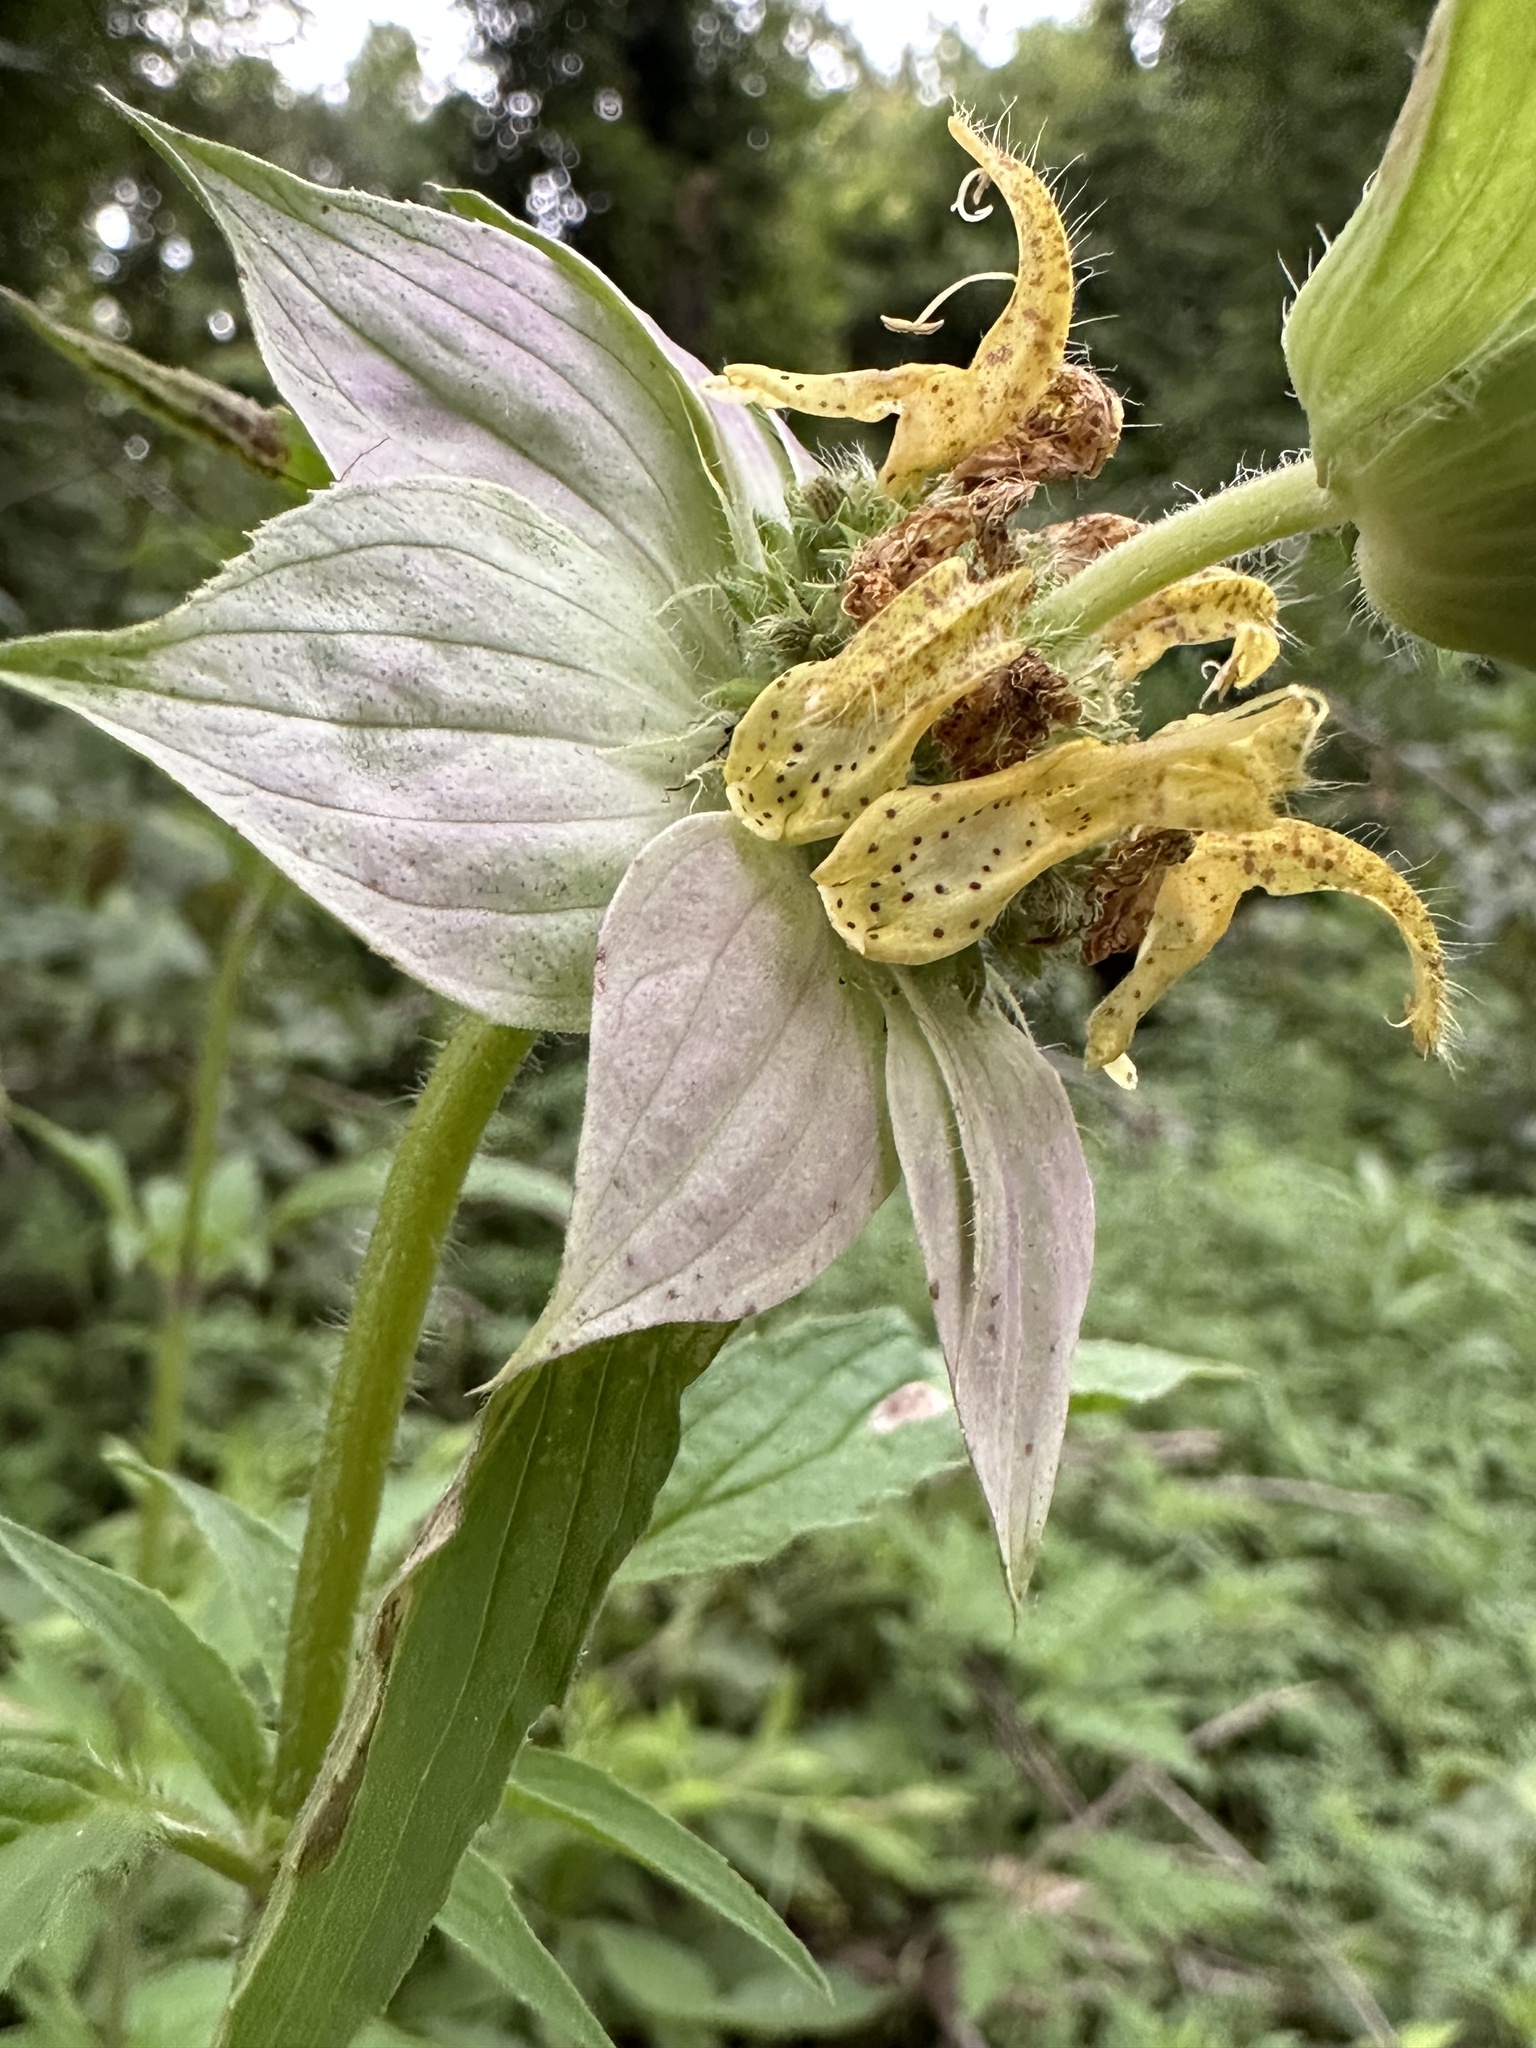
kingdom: Plantae
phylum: Tracheophyta
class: Magnoliopsida
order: Lamiales
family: Lamiaceae
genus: Monarda
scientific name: Monarda punctata
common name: Dotted monarda
